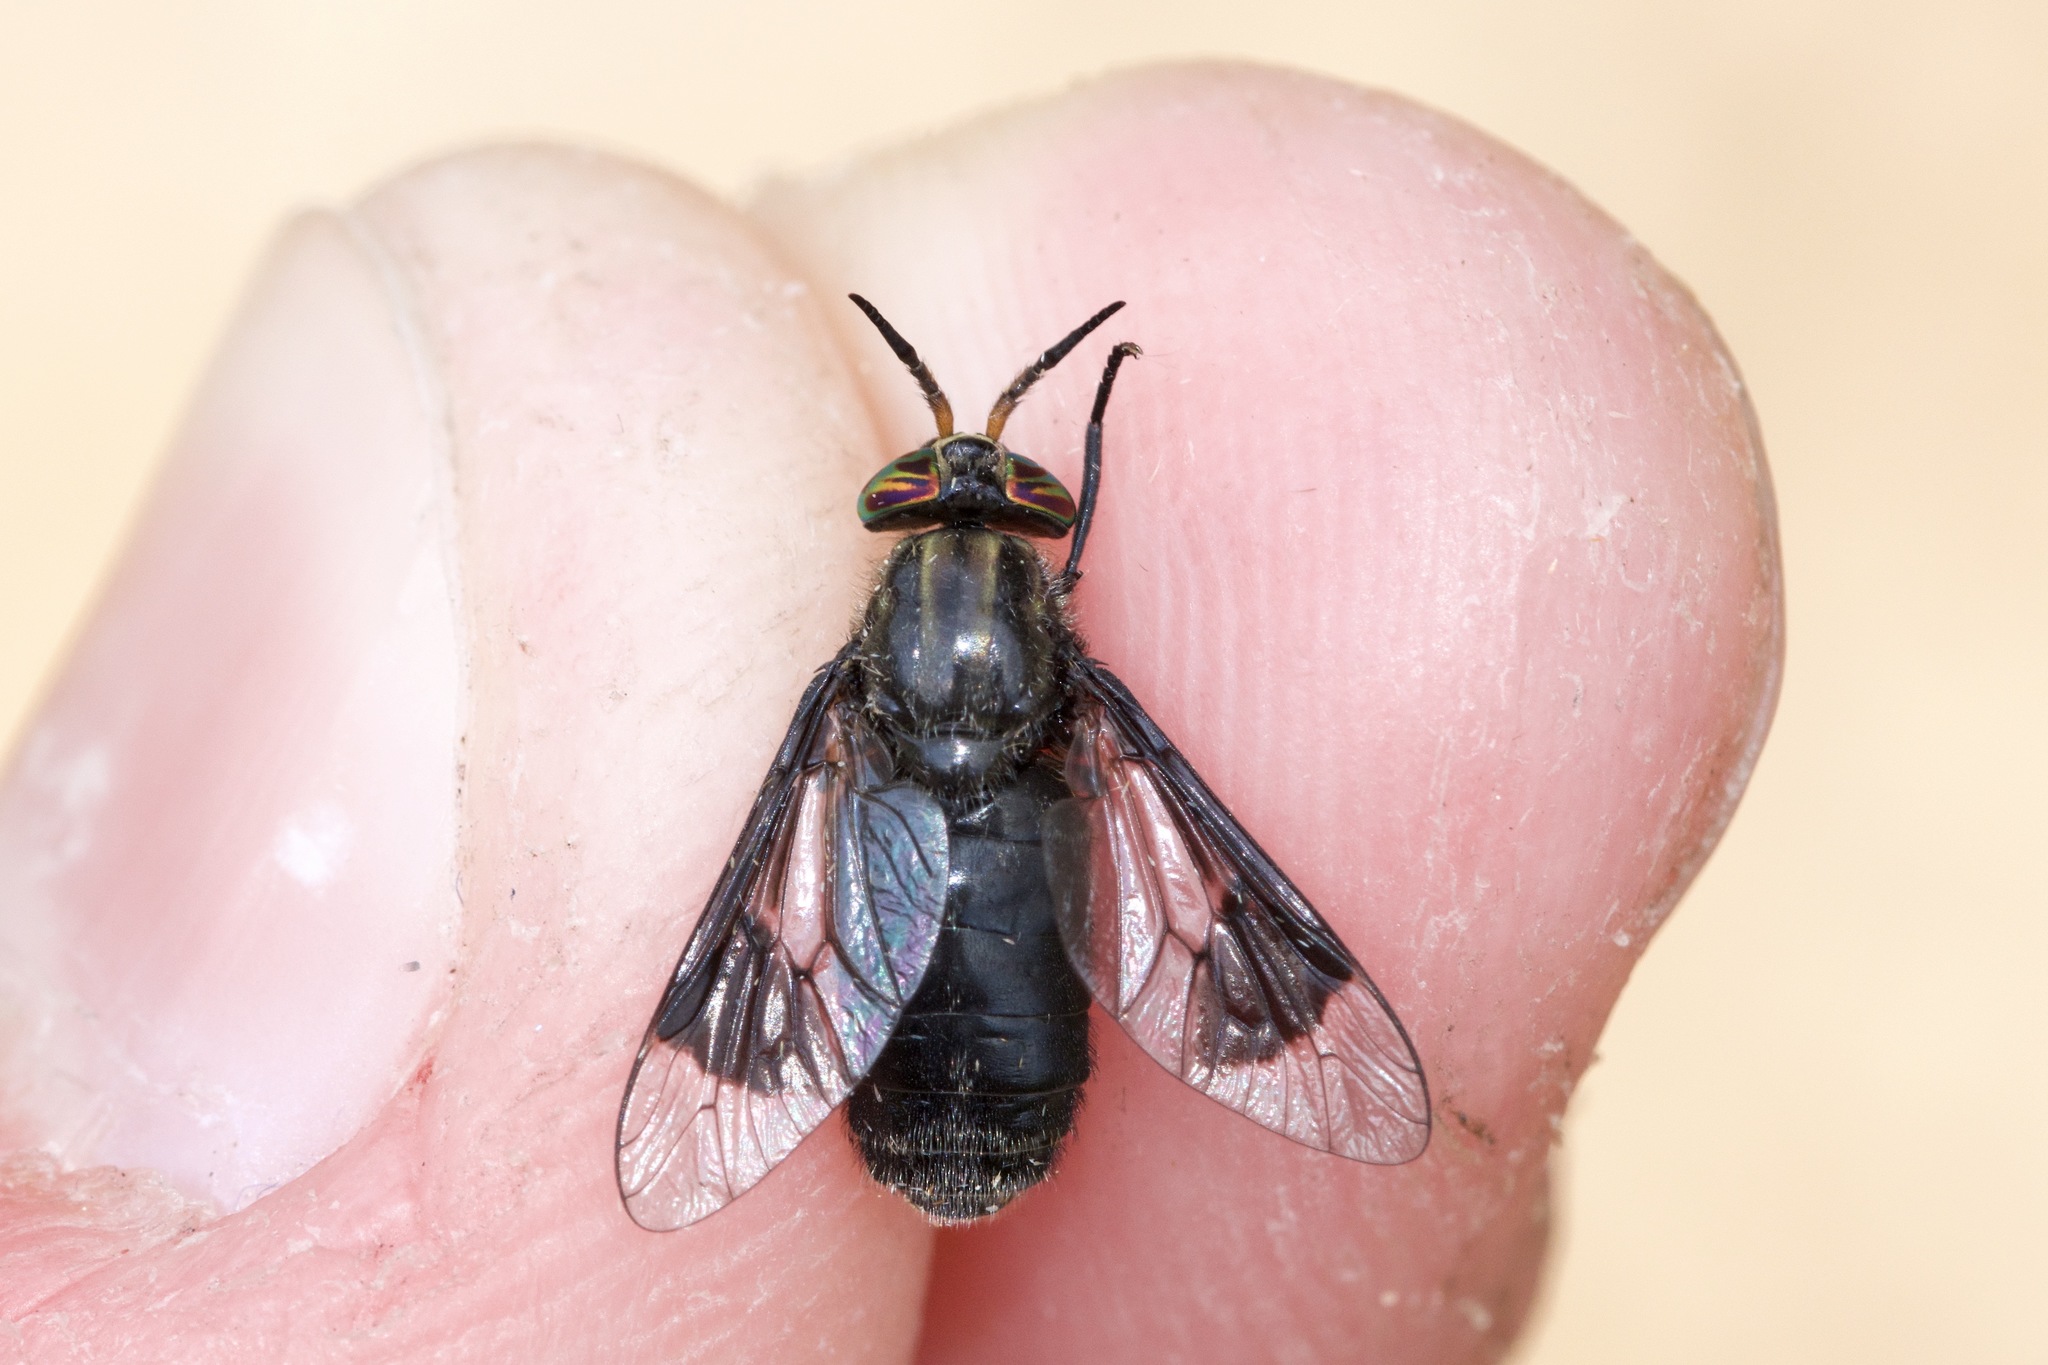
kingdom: Animalia
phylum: Arthropoda
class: Insecta
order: Diptera
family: Tabanidae
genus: Chrysops
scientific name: Chrysops niger
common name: Black deer fly
